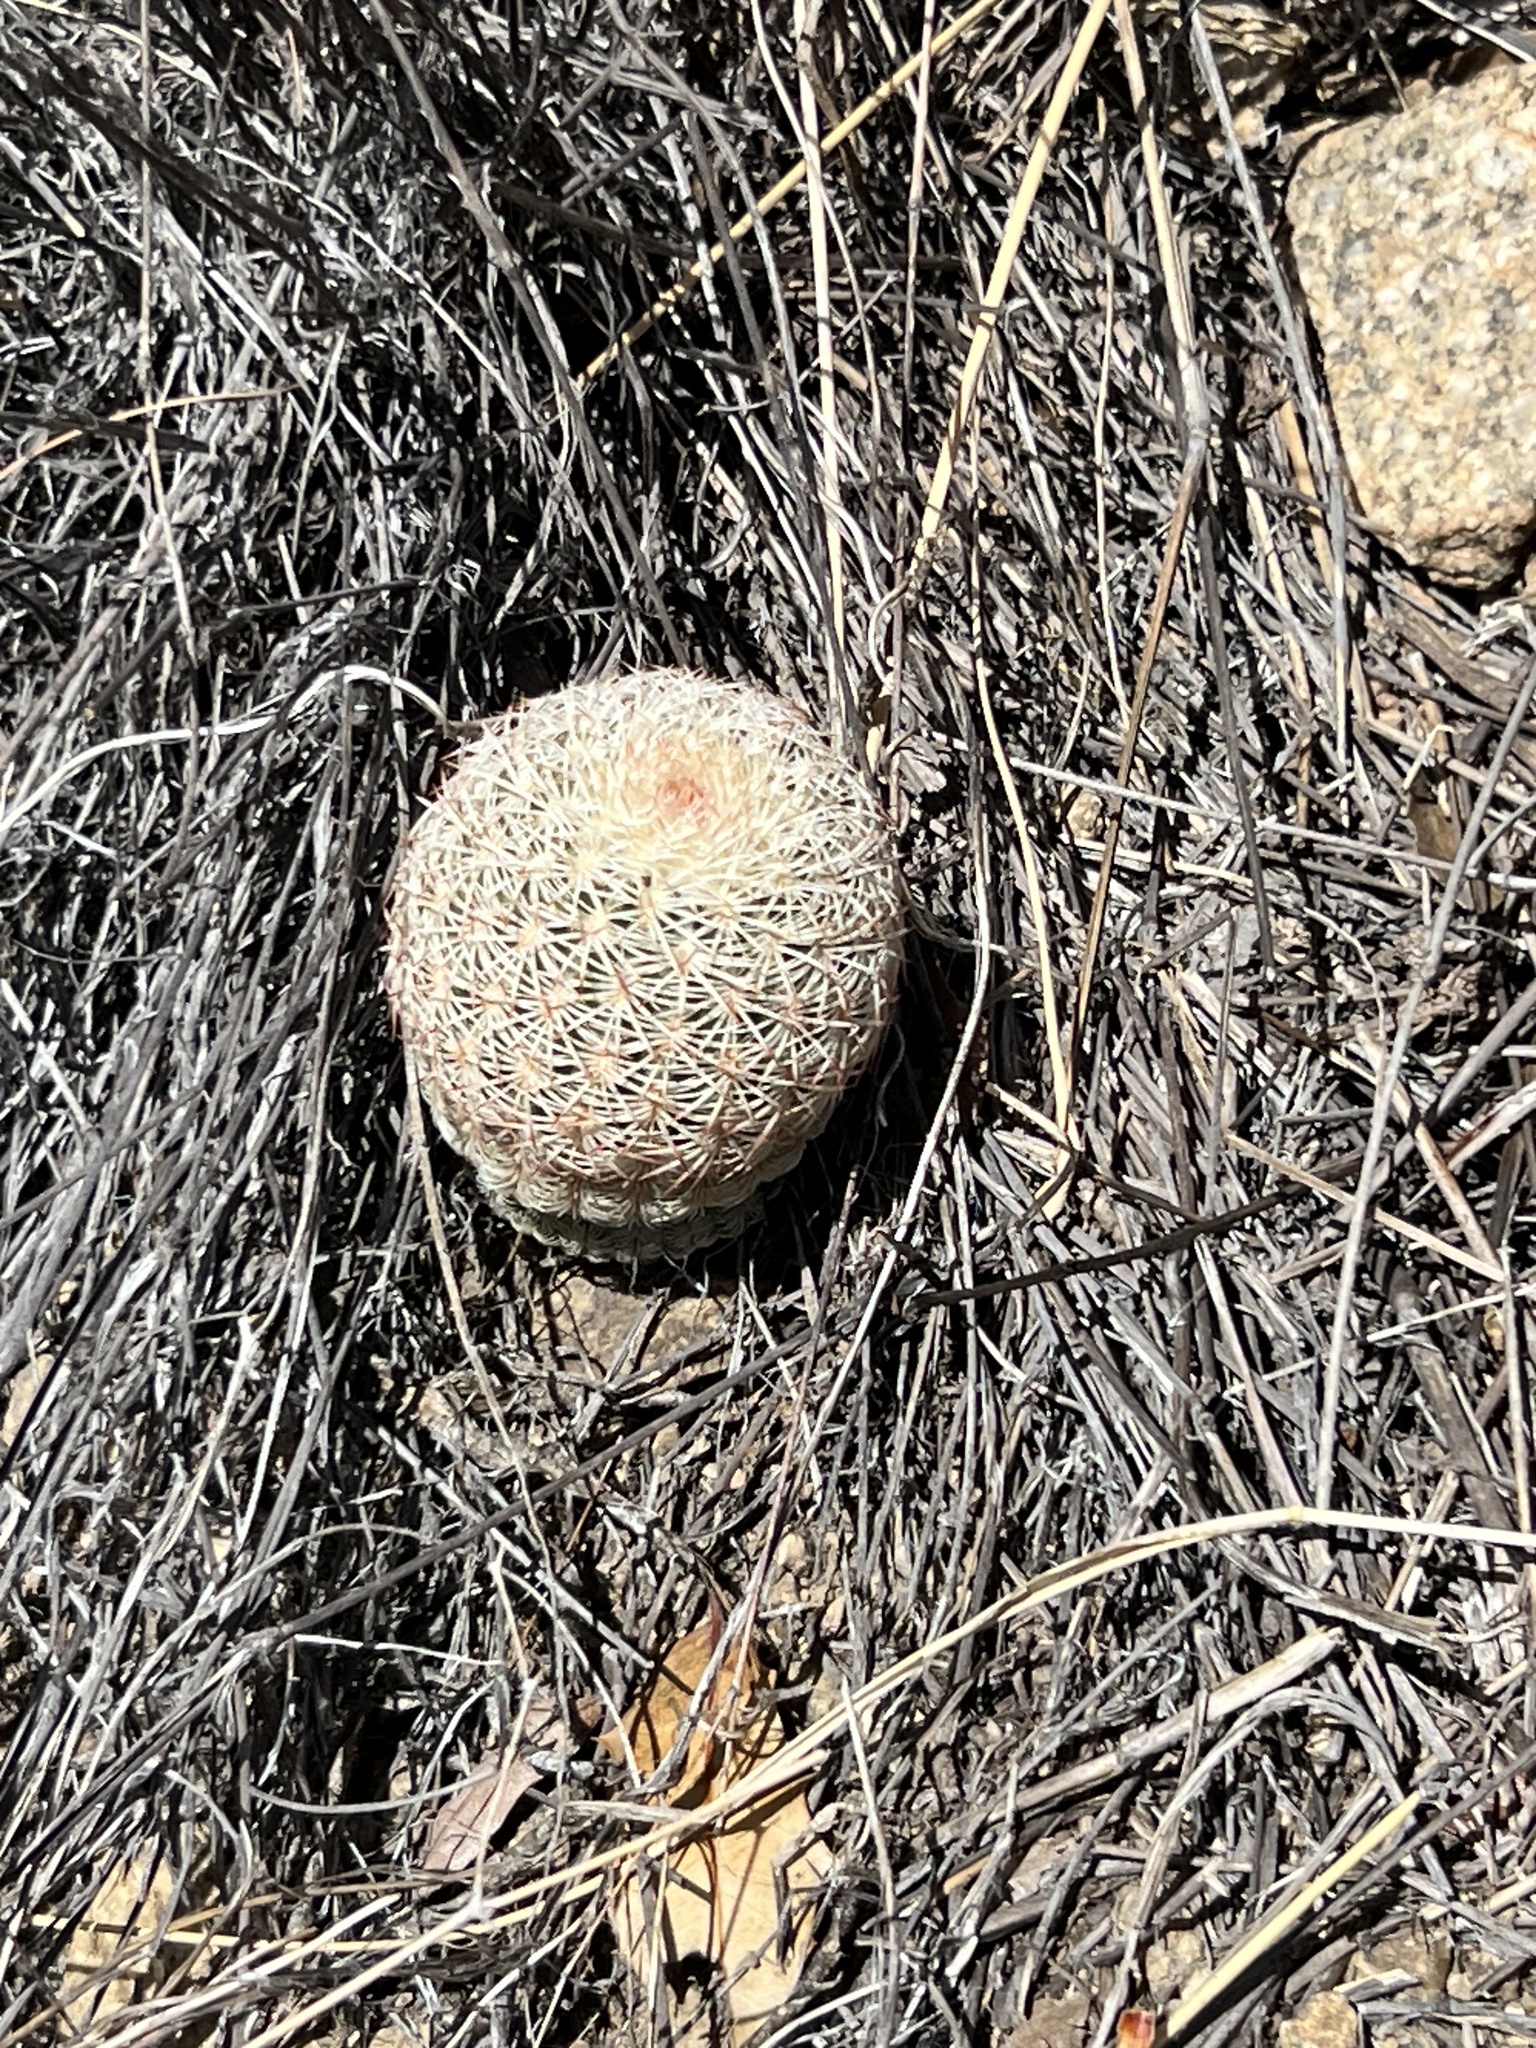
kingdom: Plantae
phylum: Tracheophyta
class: Magnoliopsida
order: Caryophyllales
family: Cactaceae
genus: Echinocereus
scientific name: Echinocereus rigidissimus
